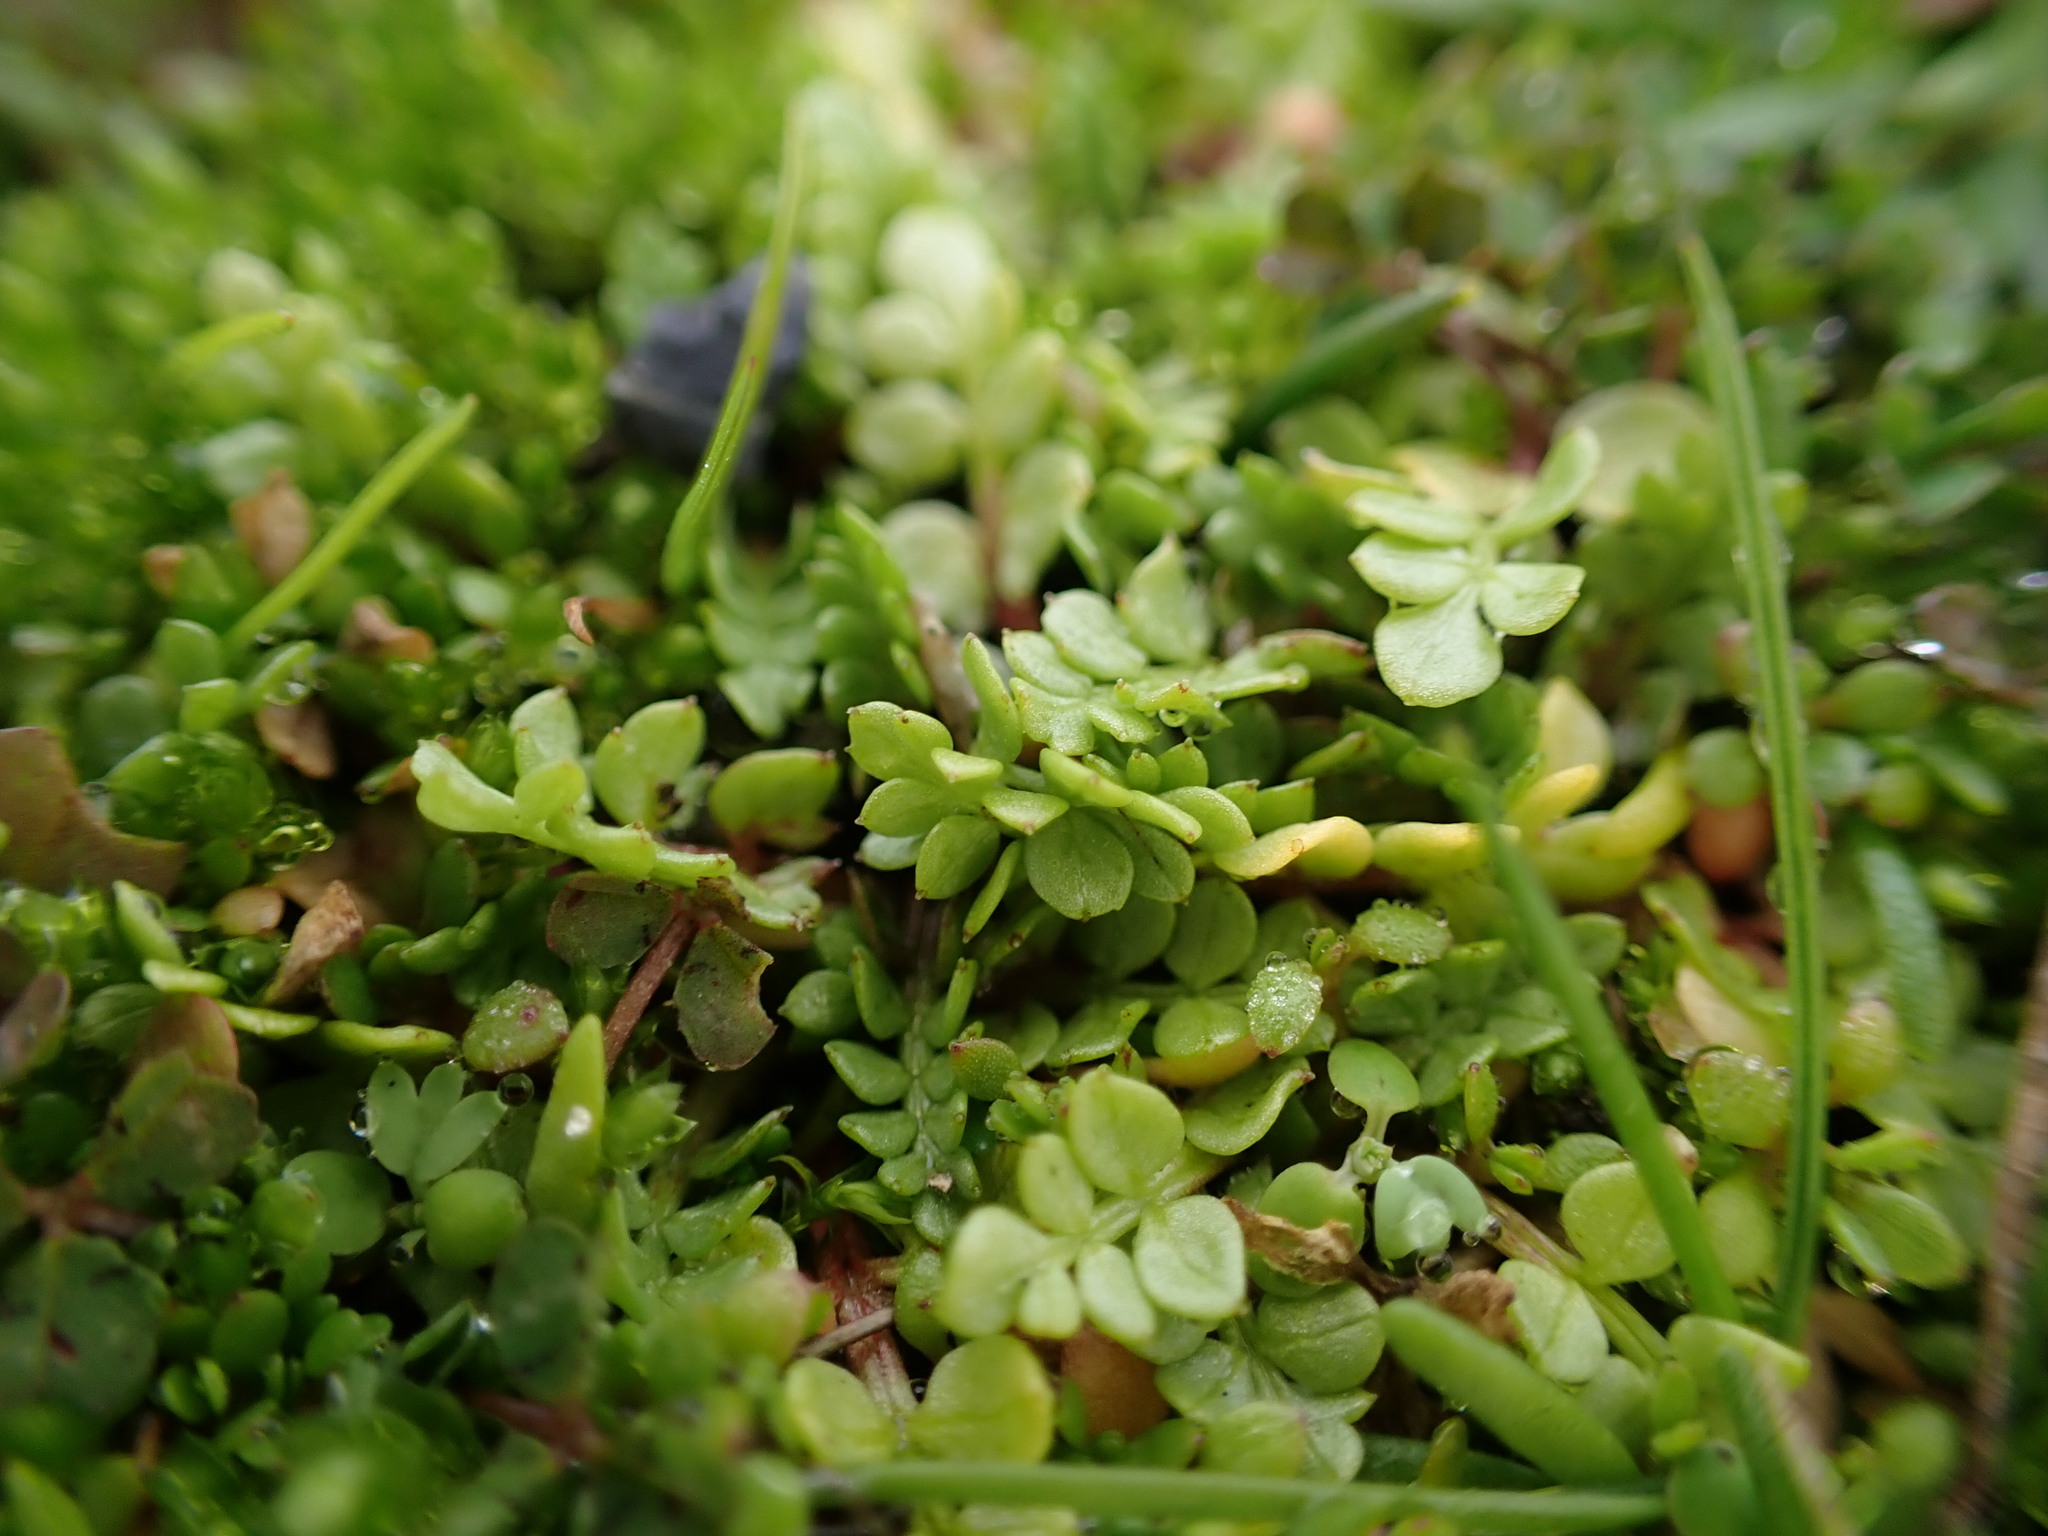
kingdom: Plantae
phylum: Tracheophyta
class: Magnoliopsida
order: Brassicales
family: Limnanthaceae
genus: Limnanthes
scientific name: Limnanthes macounii
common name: Macoun's meadowfoam
